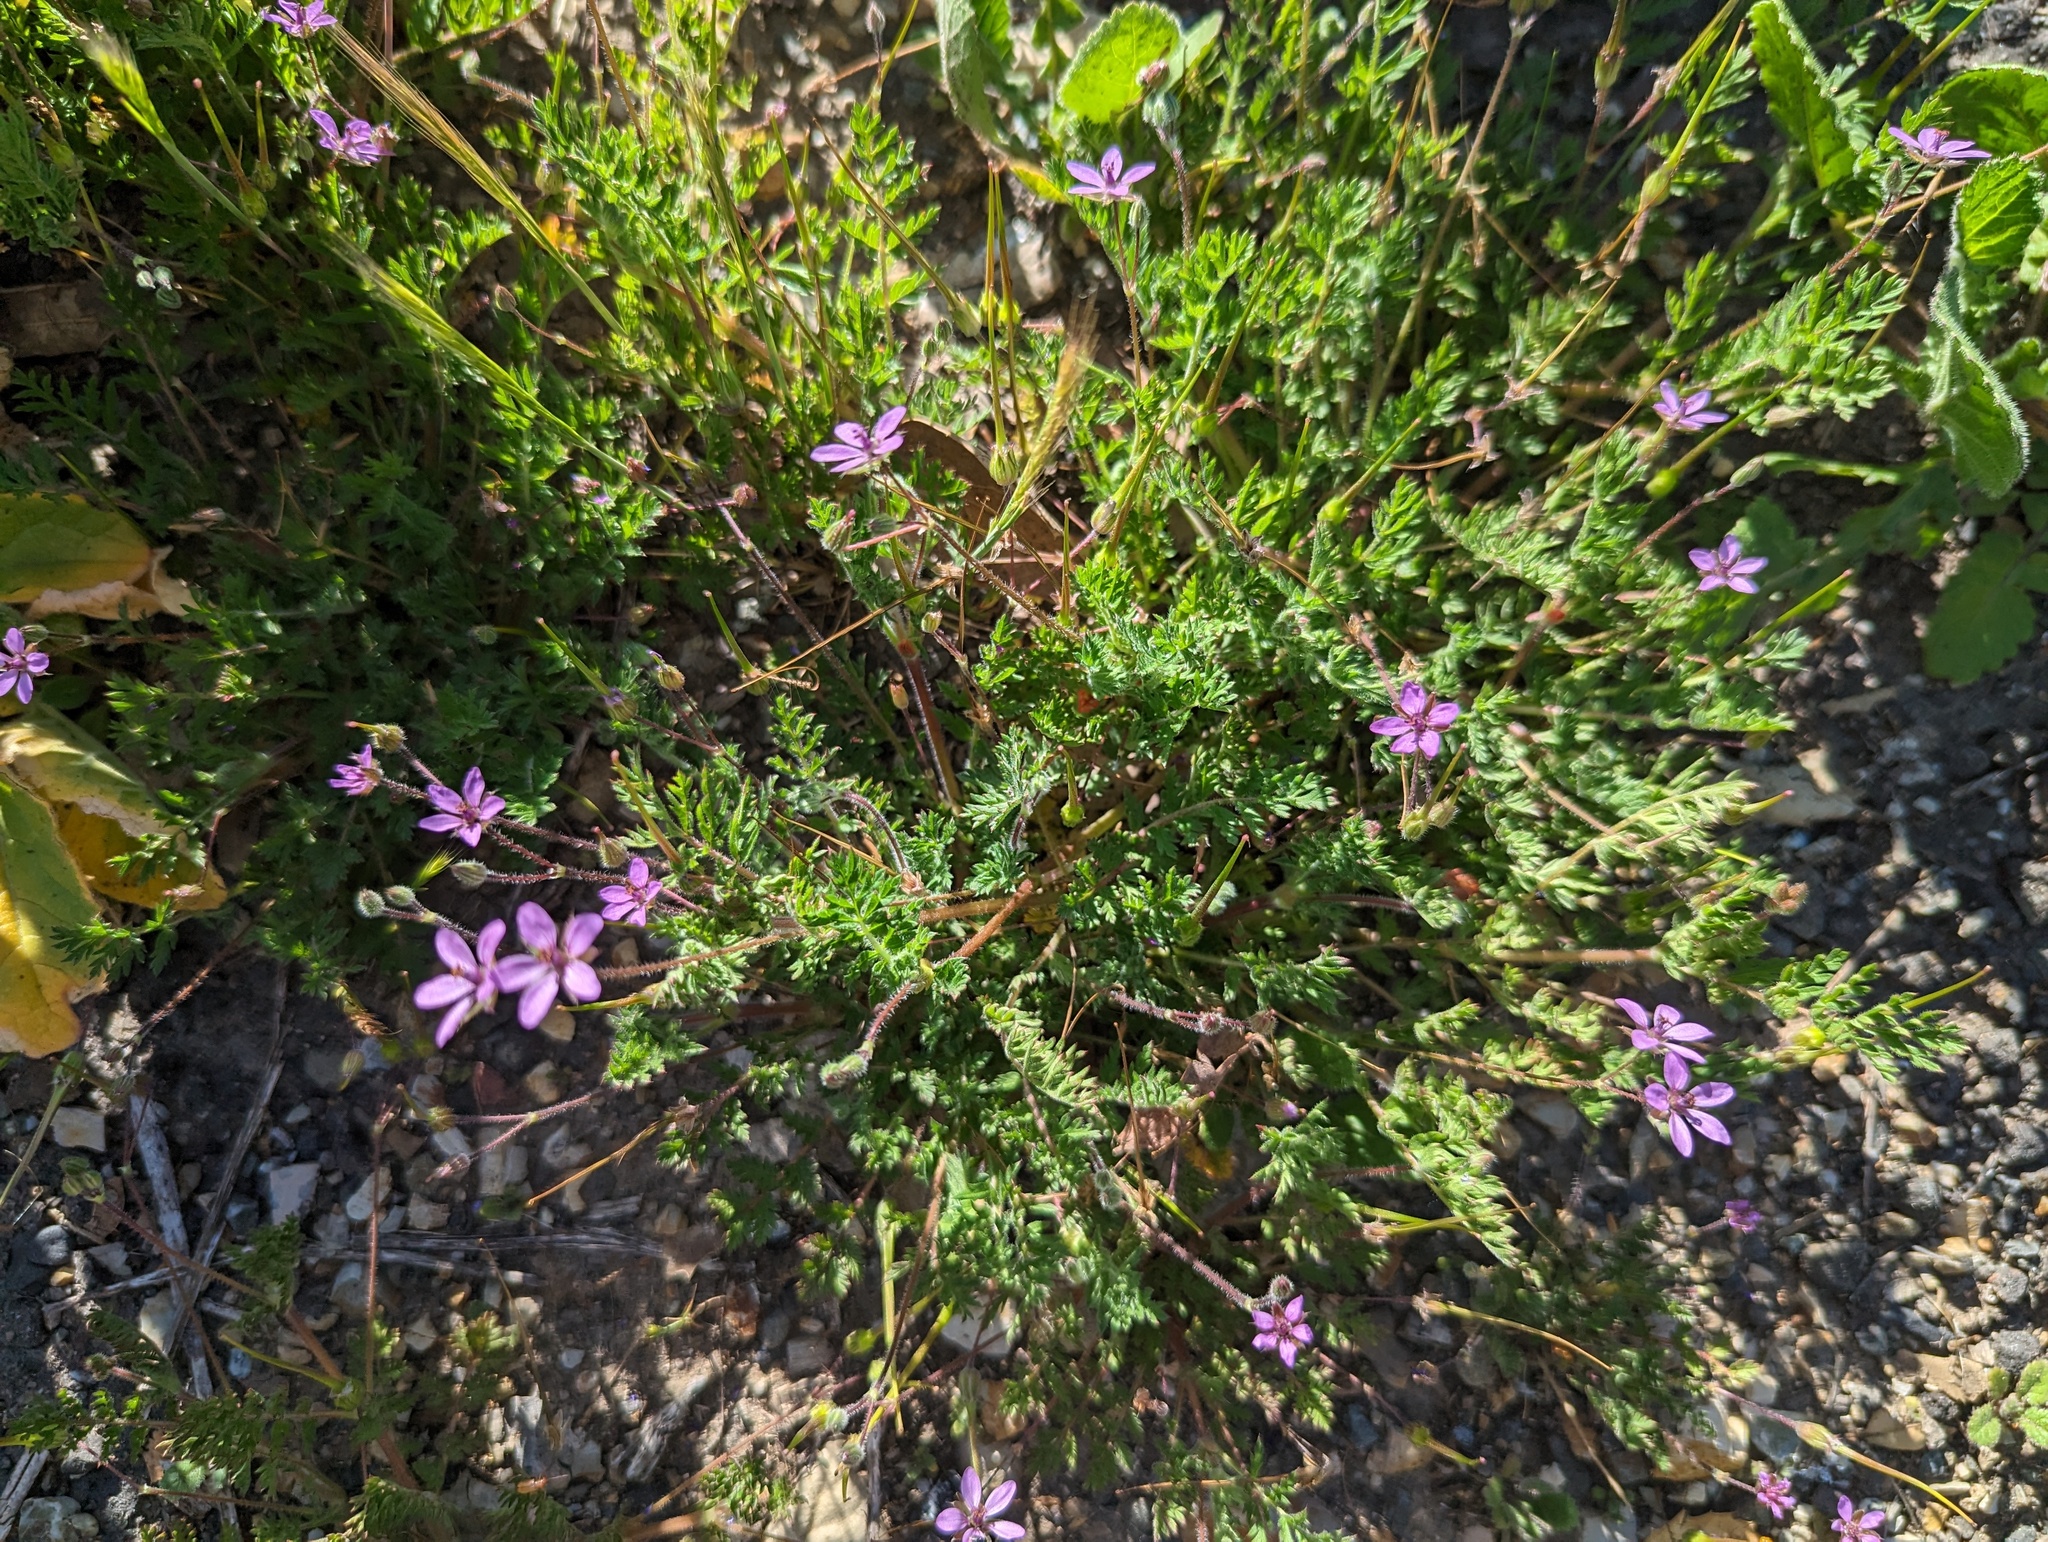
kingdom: Plantae
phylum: Tracheophyta
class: Magnoliopsida
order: Geraniales
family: Geraniaceae
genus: Erodium
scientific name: Erodium cicutarium
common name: Common stork's-bill
